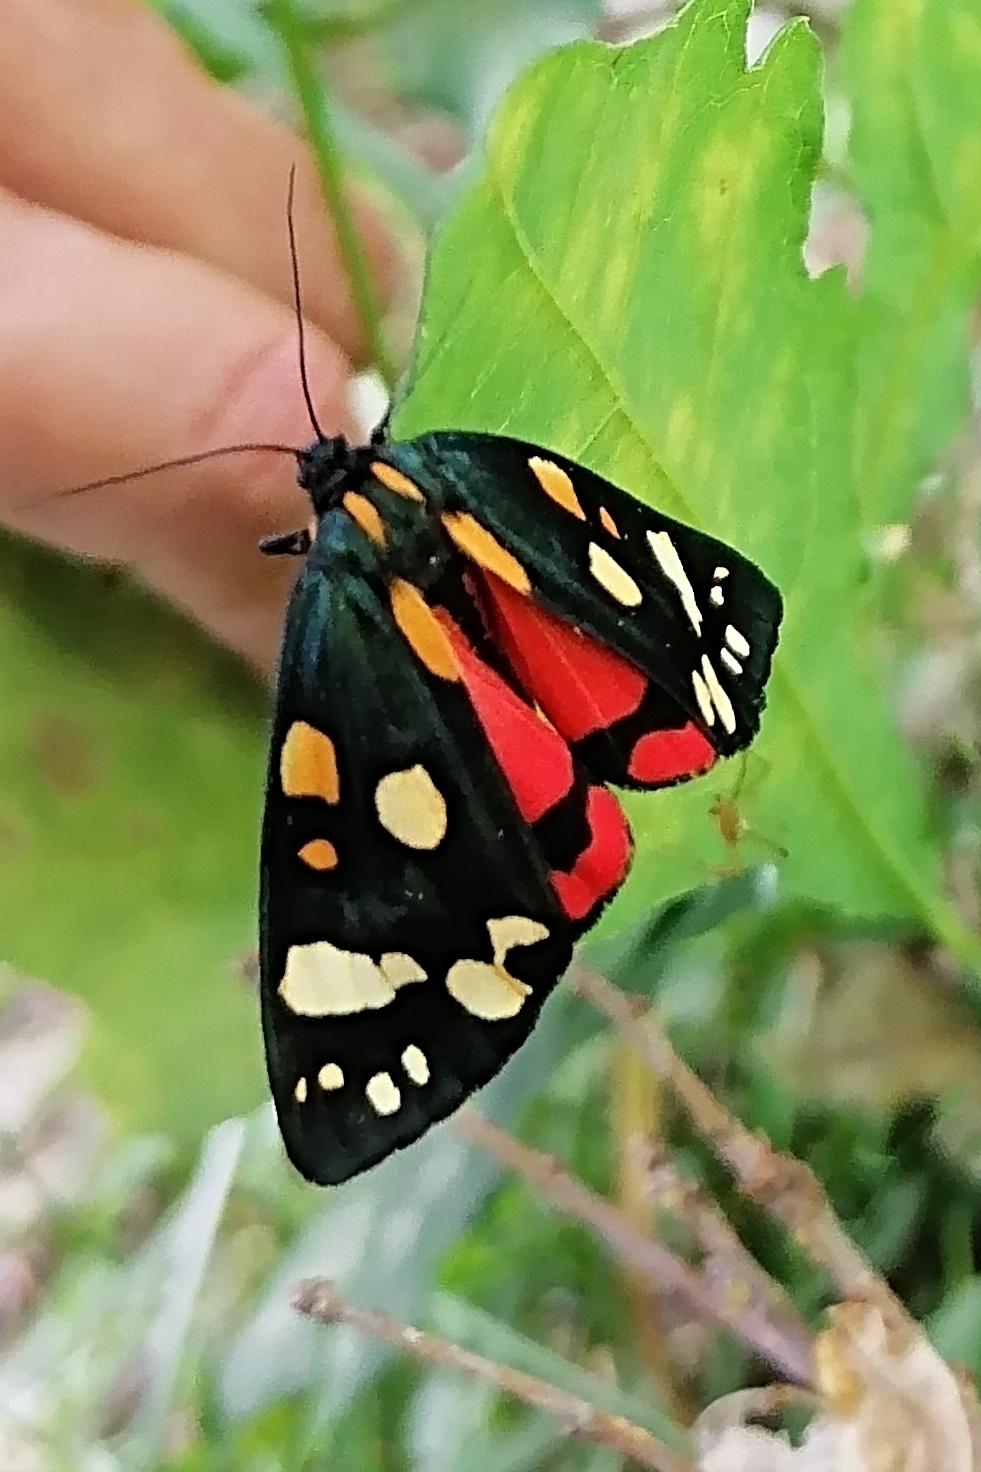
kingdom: Animalia
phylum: Arthropoda
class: Insecta
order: Lepidoptera
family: Erebidae
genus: Callimorpha
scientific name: Callimorpha dominula
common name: Scarlet tiger
